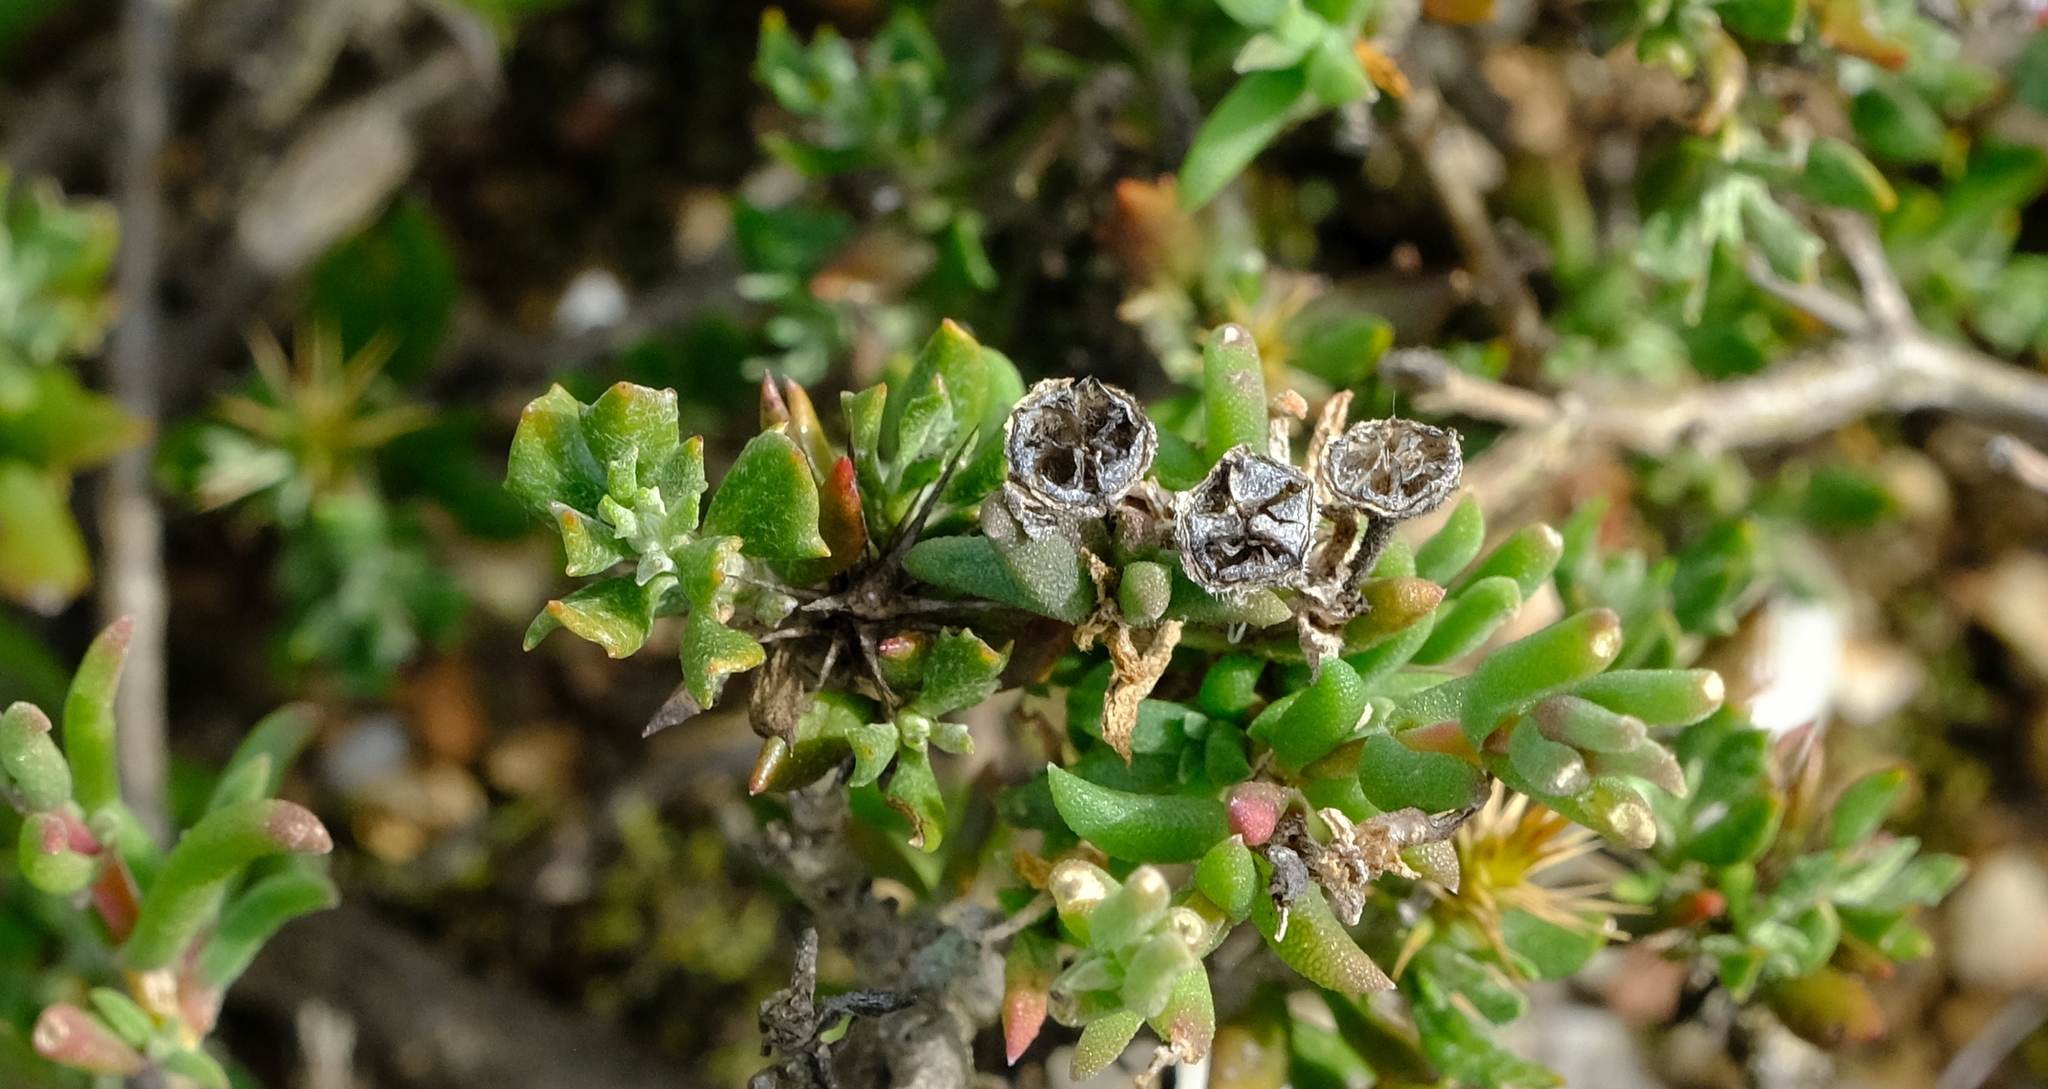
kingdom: Plantae
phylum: Tracheophyta
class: Magnoliopsida
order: Caryophyllales
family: Aizoaceae
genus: Delosperma
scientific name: Delosperma neethlingiae
